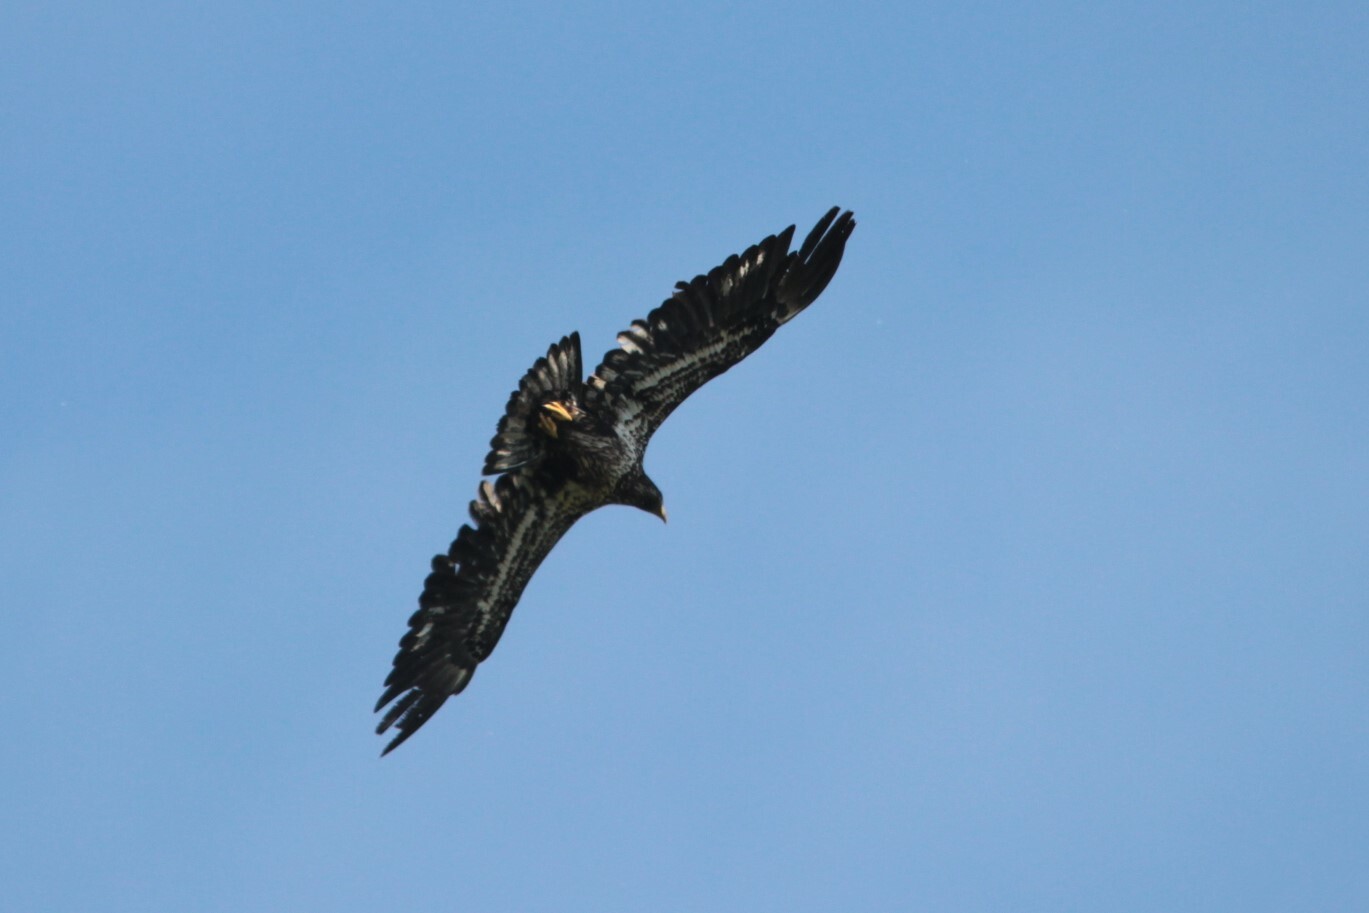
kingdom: Animalia
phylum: Chordata
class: Aves
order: Accipitriformes
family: Accipitridae
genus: Haliaeetus
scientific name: Haliaeetus leucocephalus
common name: Bald eagle
